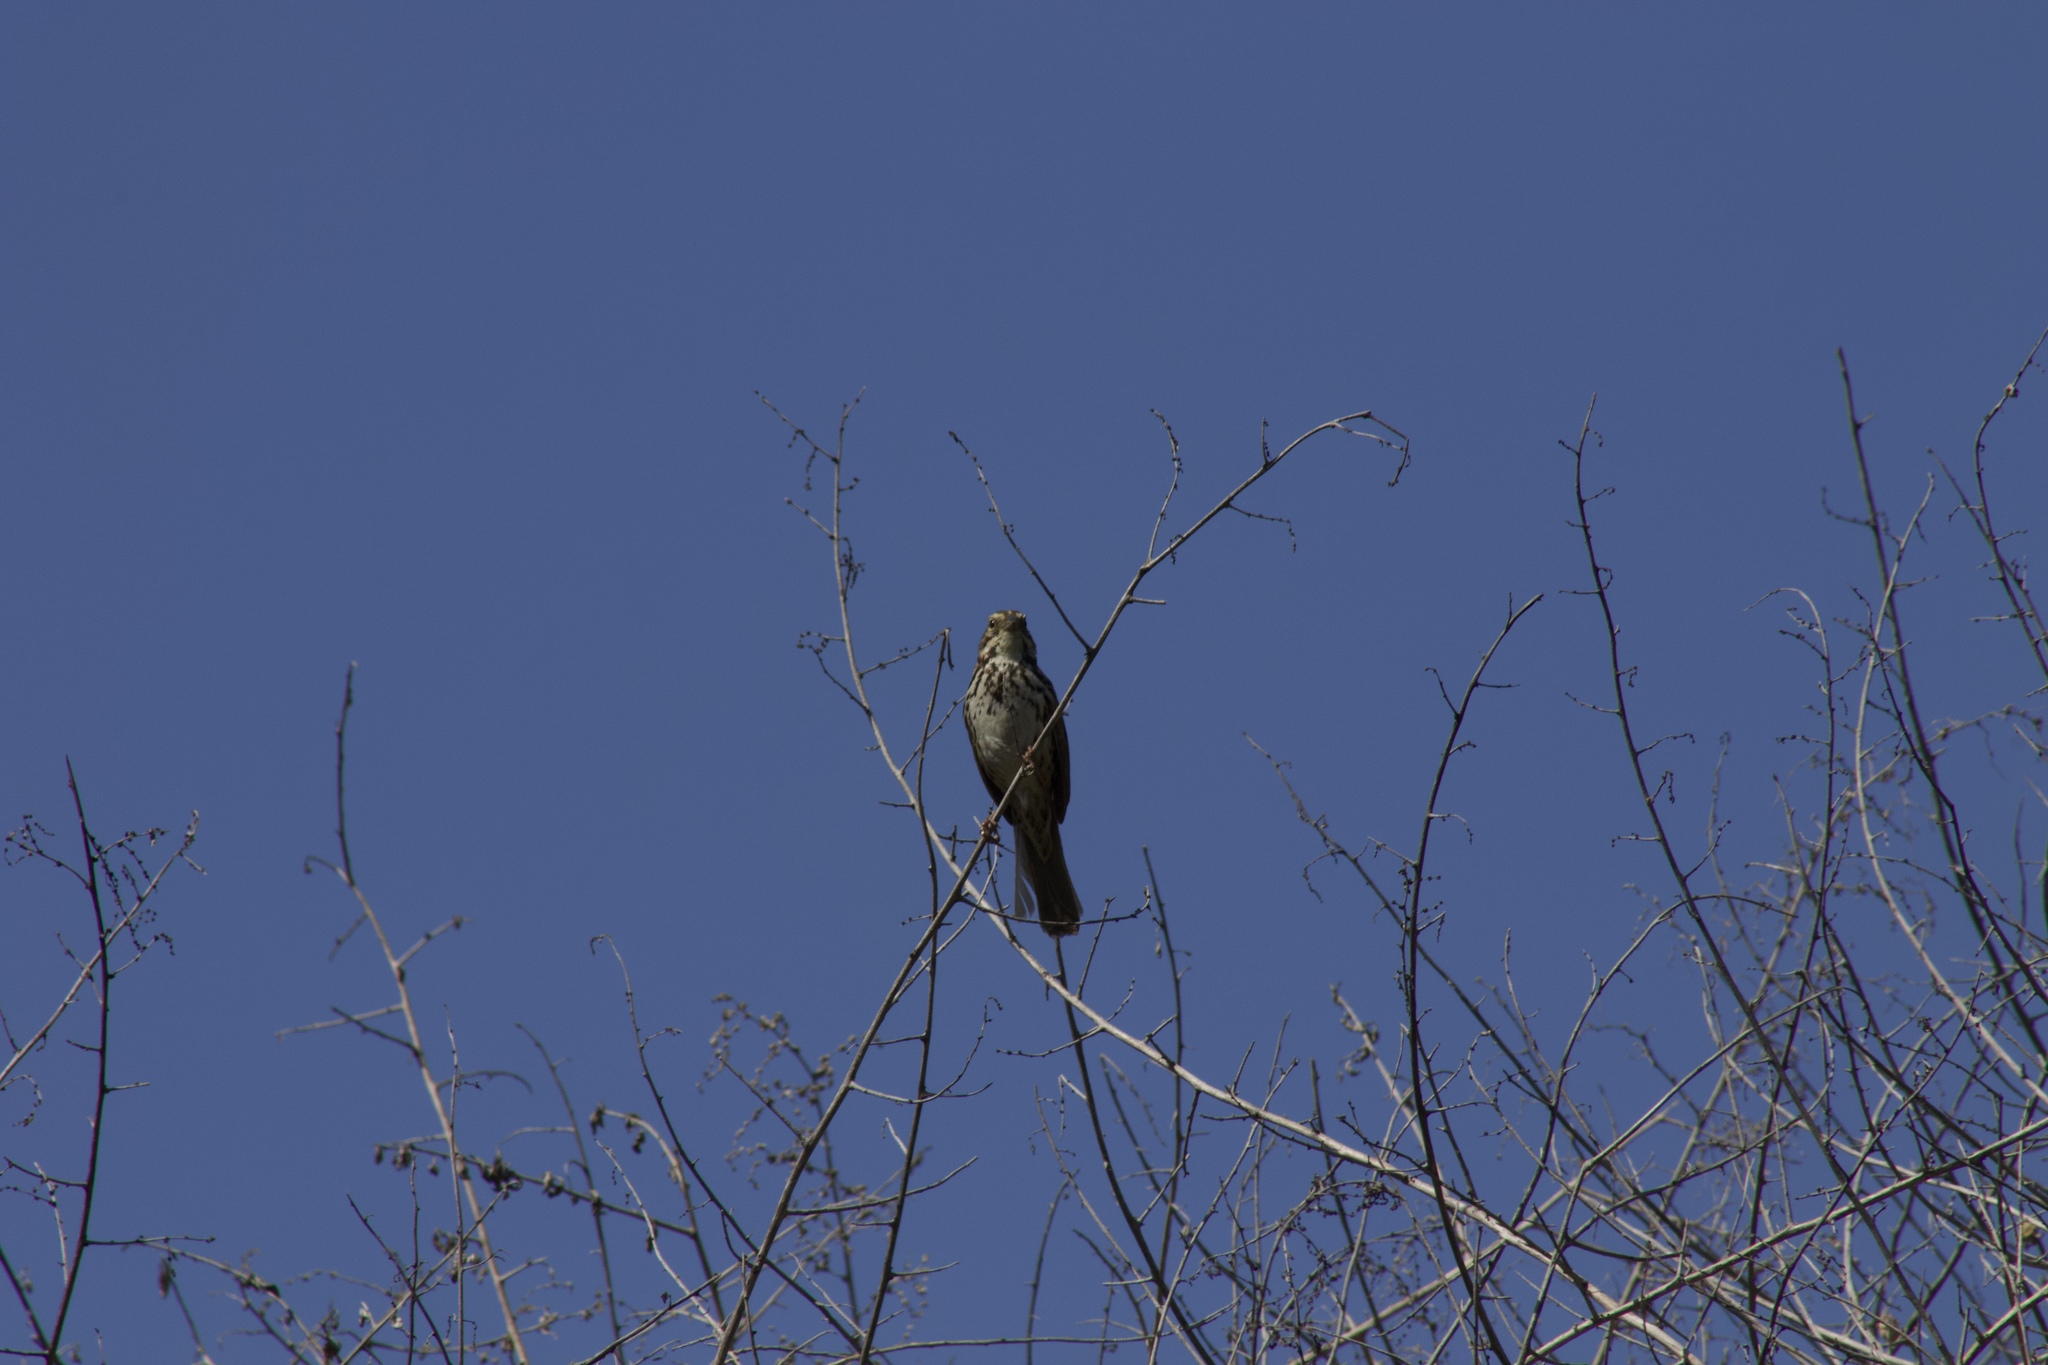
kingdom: Animalia
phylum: Chordata
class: Aves
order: Passeriformes
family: Passerellidae
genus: Melospiza
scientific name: Melospiza melodia
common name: Song sparrow
